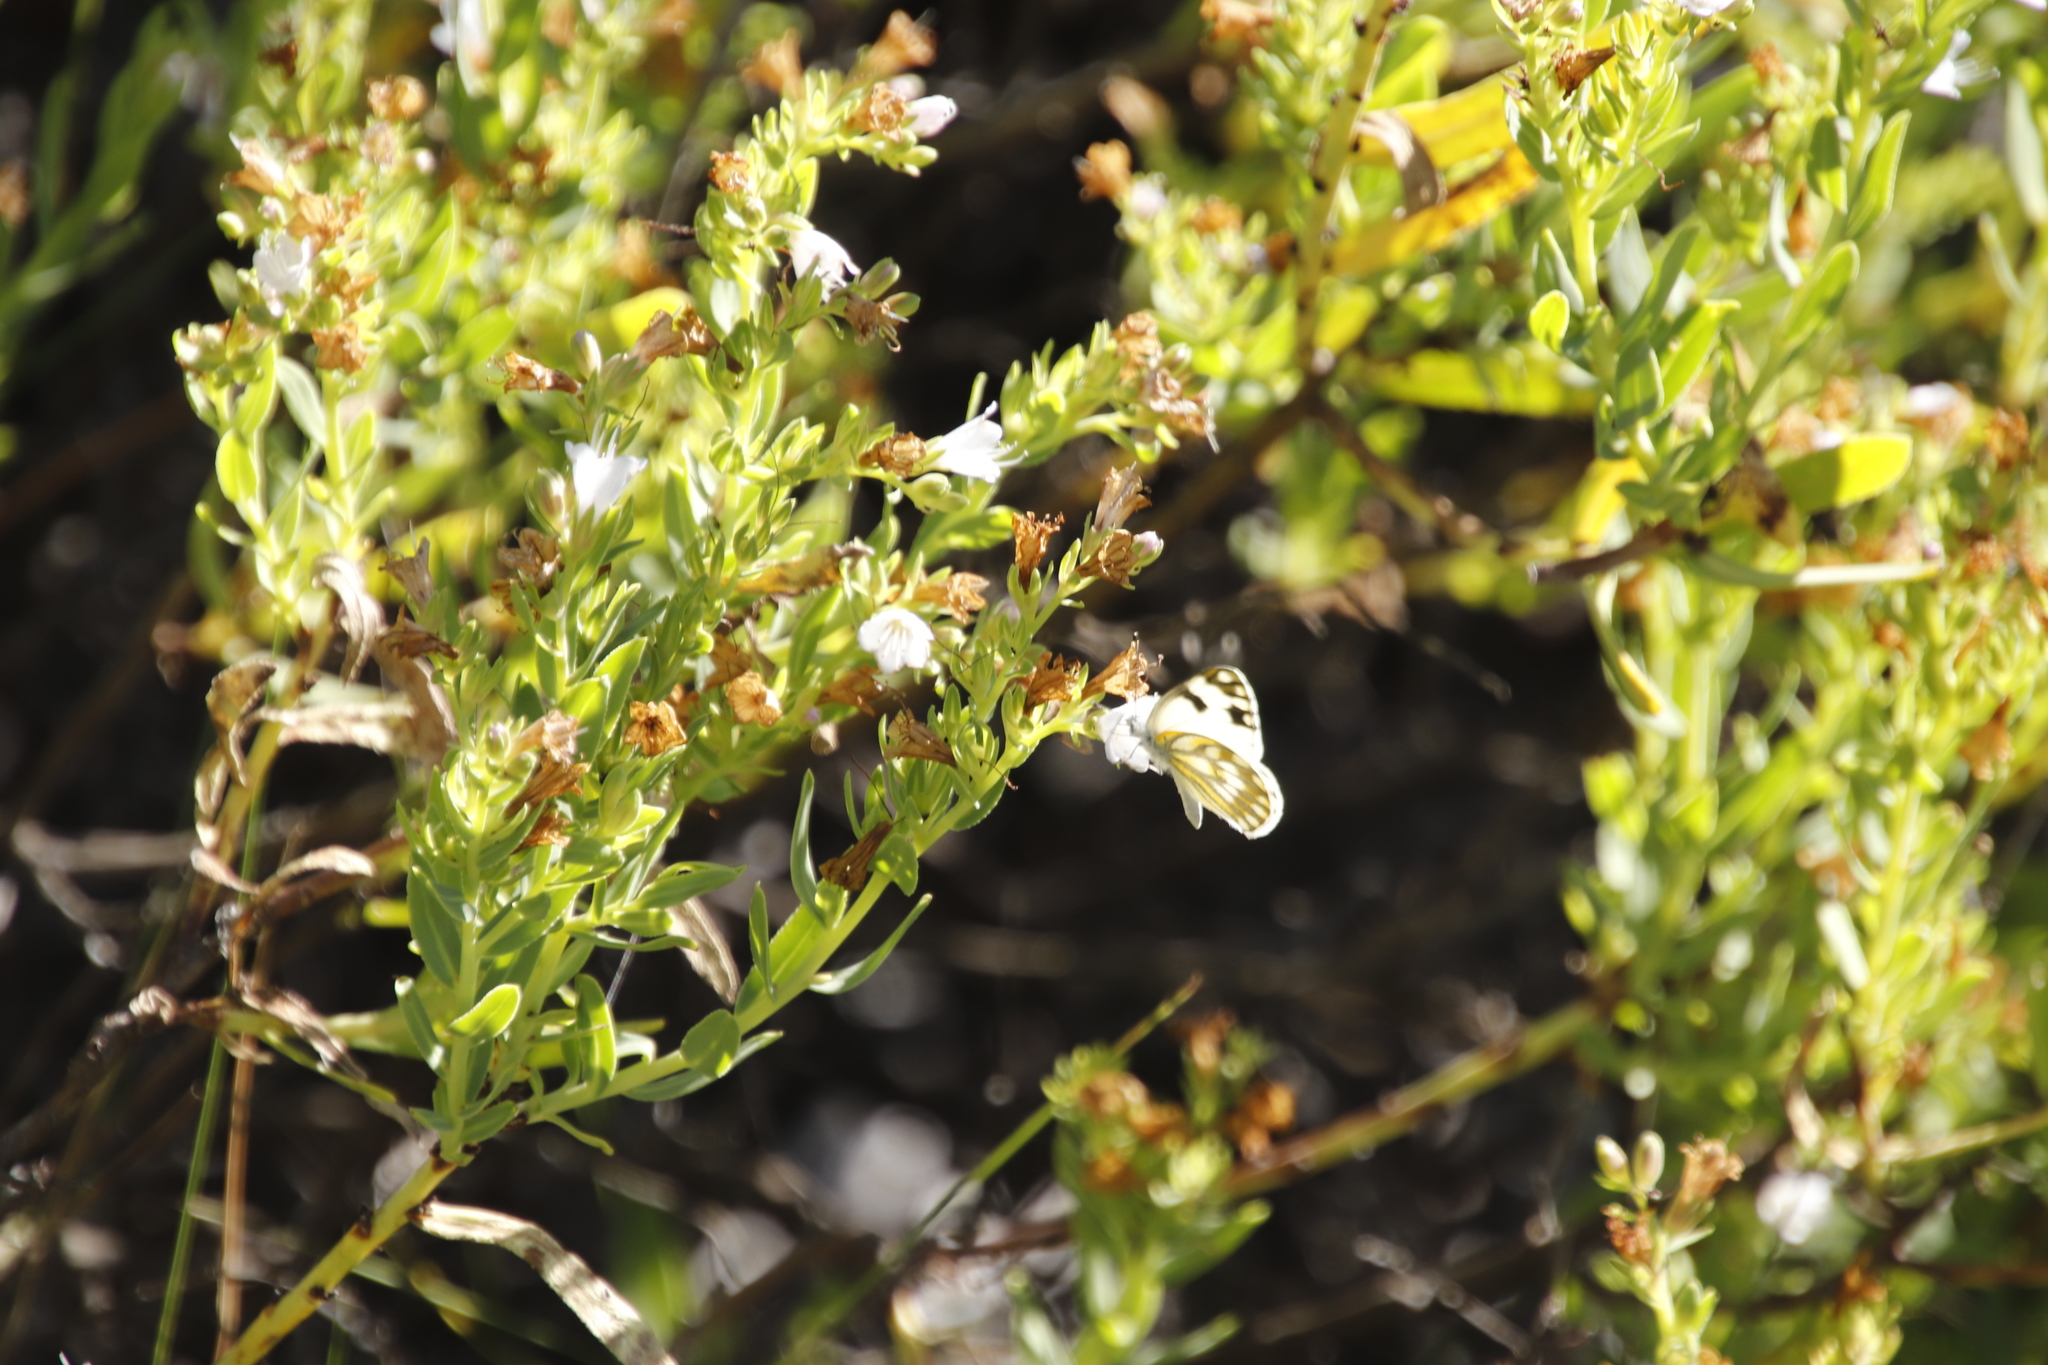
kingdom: Plantae
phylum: Tracheophyta
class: Magnoliopsida
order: Boraginales
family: Boraginaceae
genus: Lobostemon
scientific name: Lobostemon glaucophyllus
